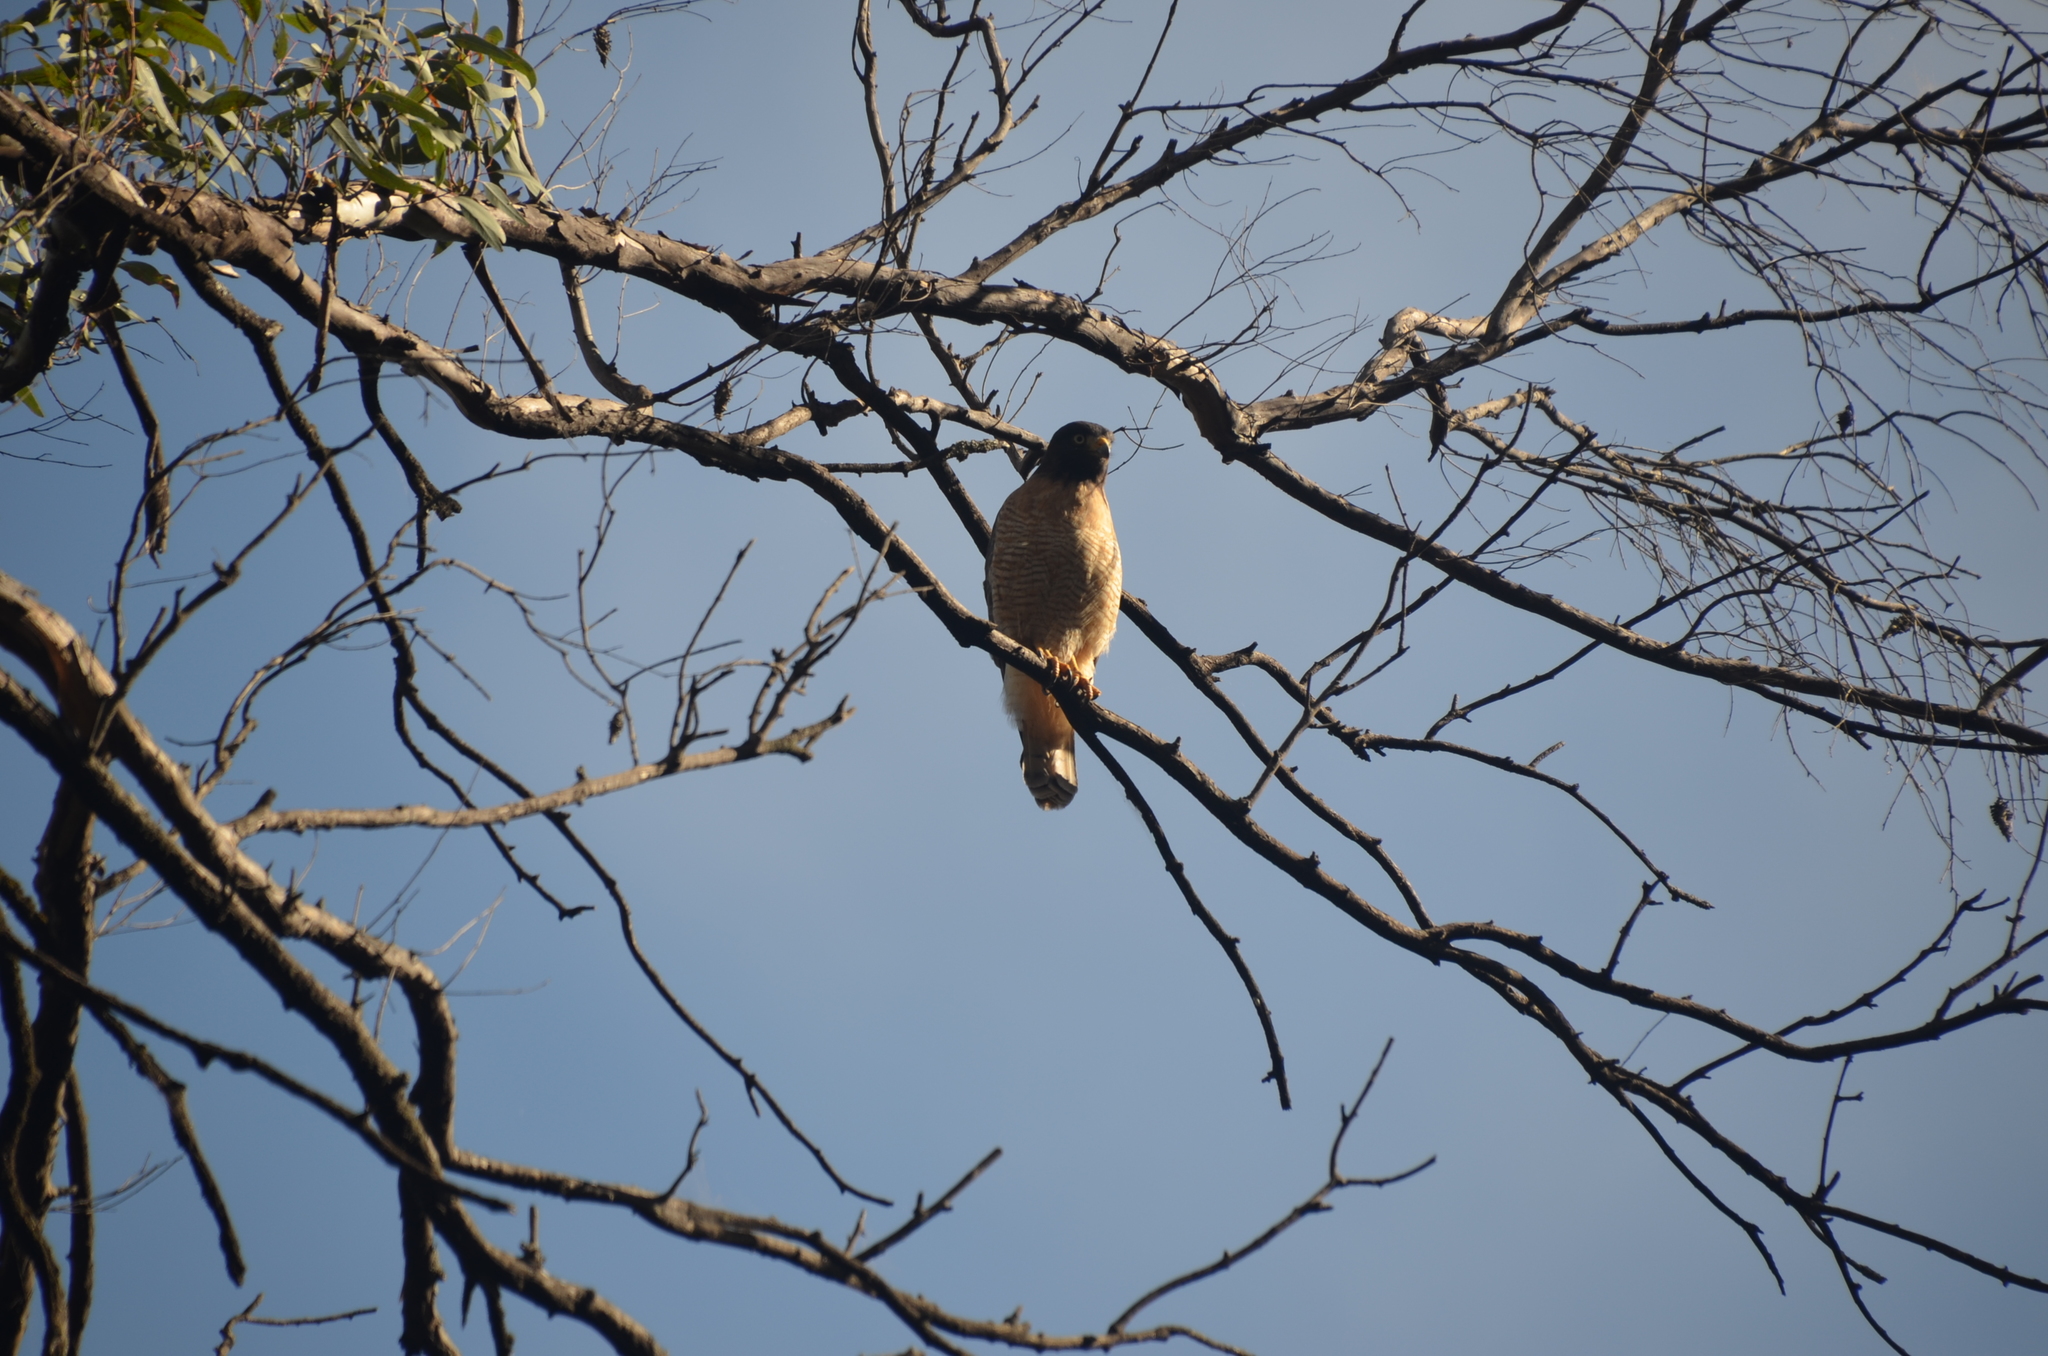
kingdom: Animalia
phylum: Chordata
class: Aves
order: Accipitriformes
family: Accipitridae
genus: Rupornis
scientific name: Rupornis magnirostris
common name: Roadside hawk
